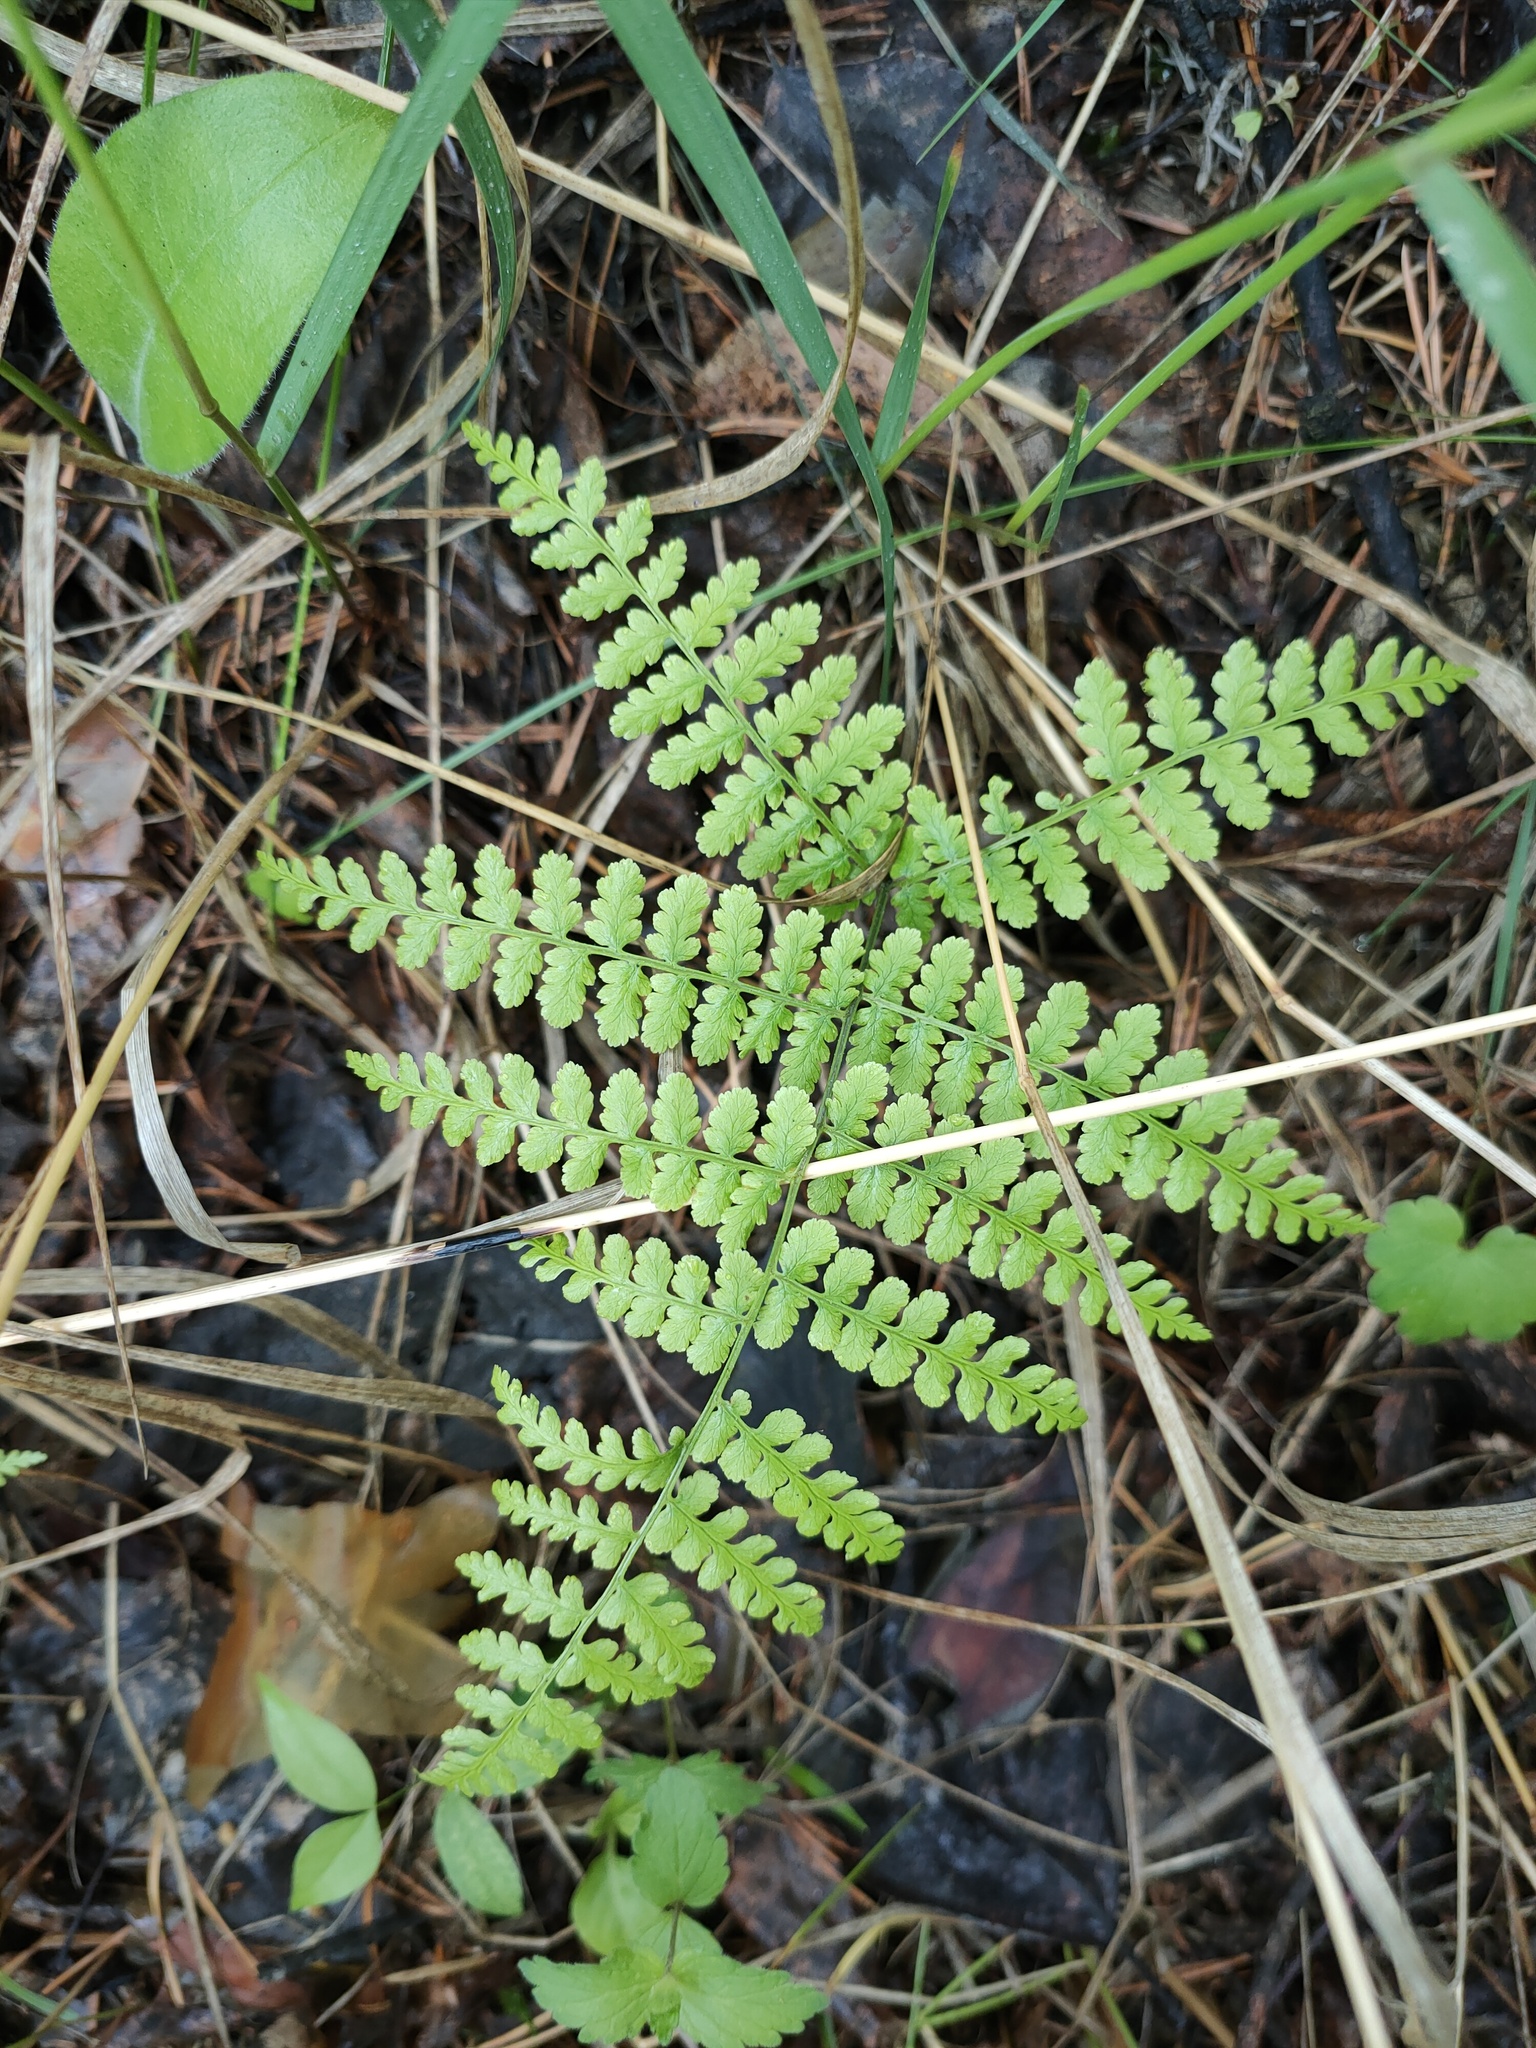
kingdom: Plantae
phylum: Tracheophyta
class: Polypodiopsida
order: Polypodiales
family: Athyriaceae
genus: Diplazium
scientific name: Diplazium sibiricum
